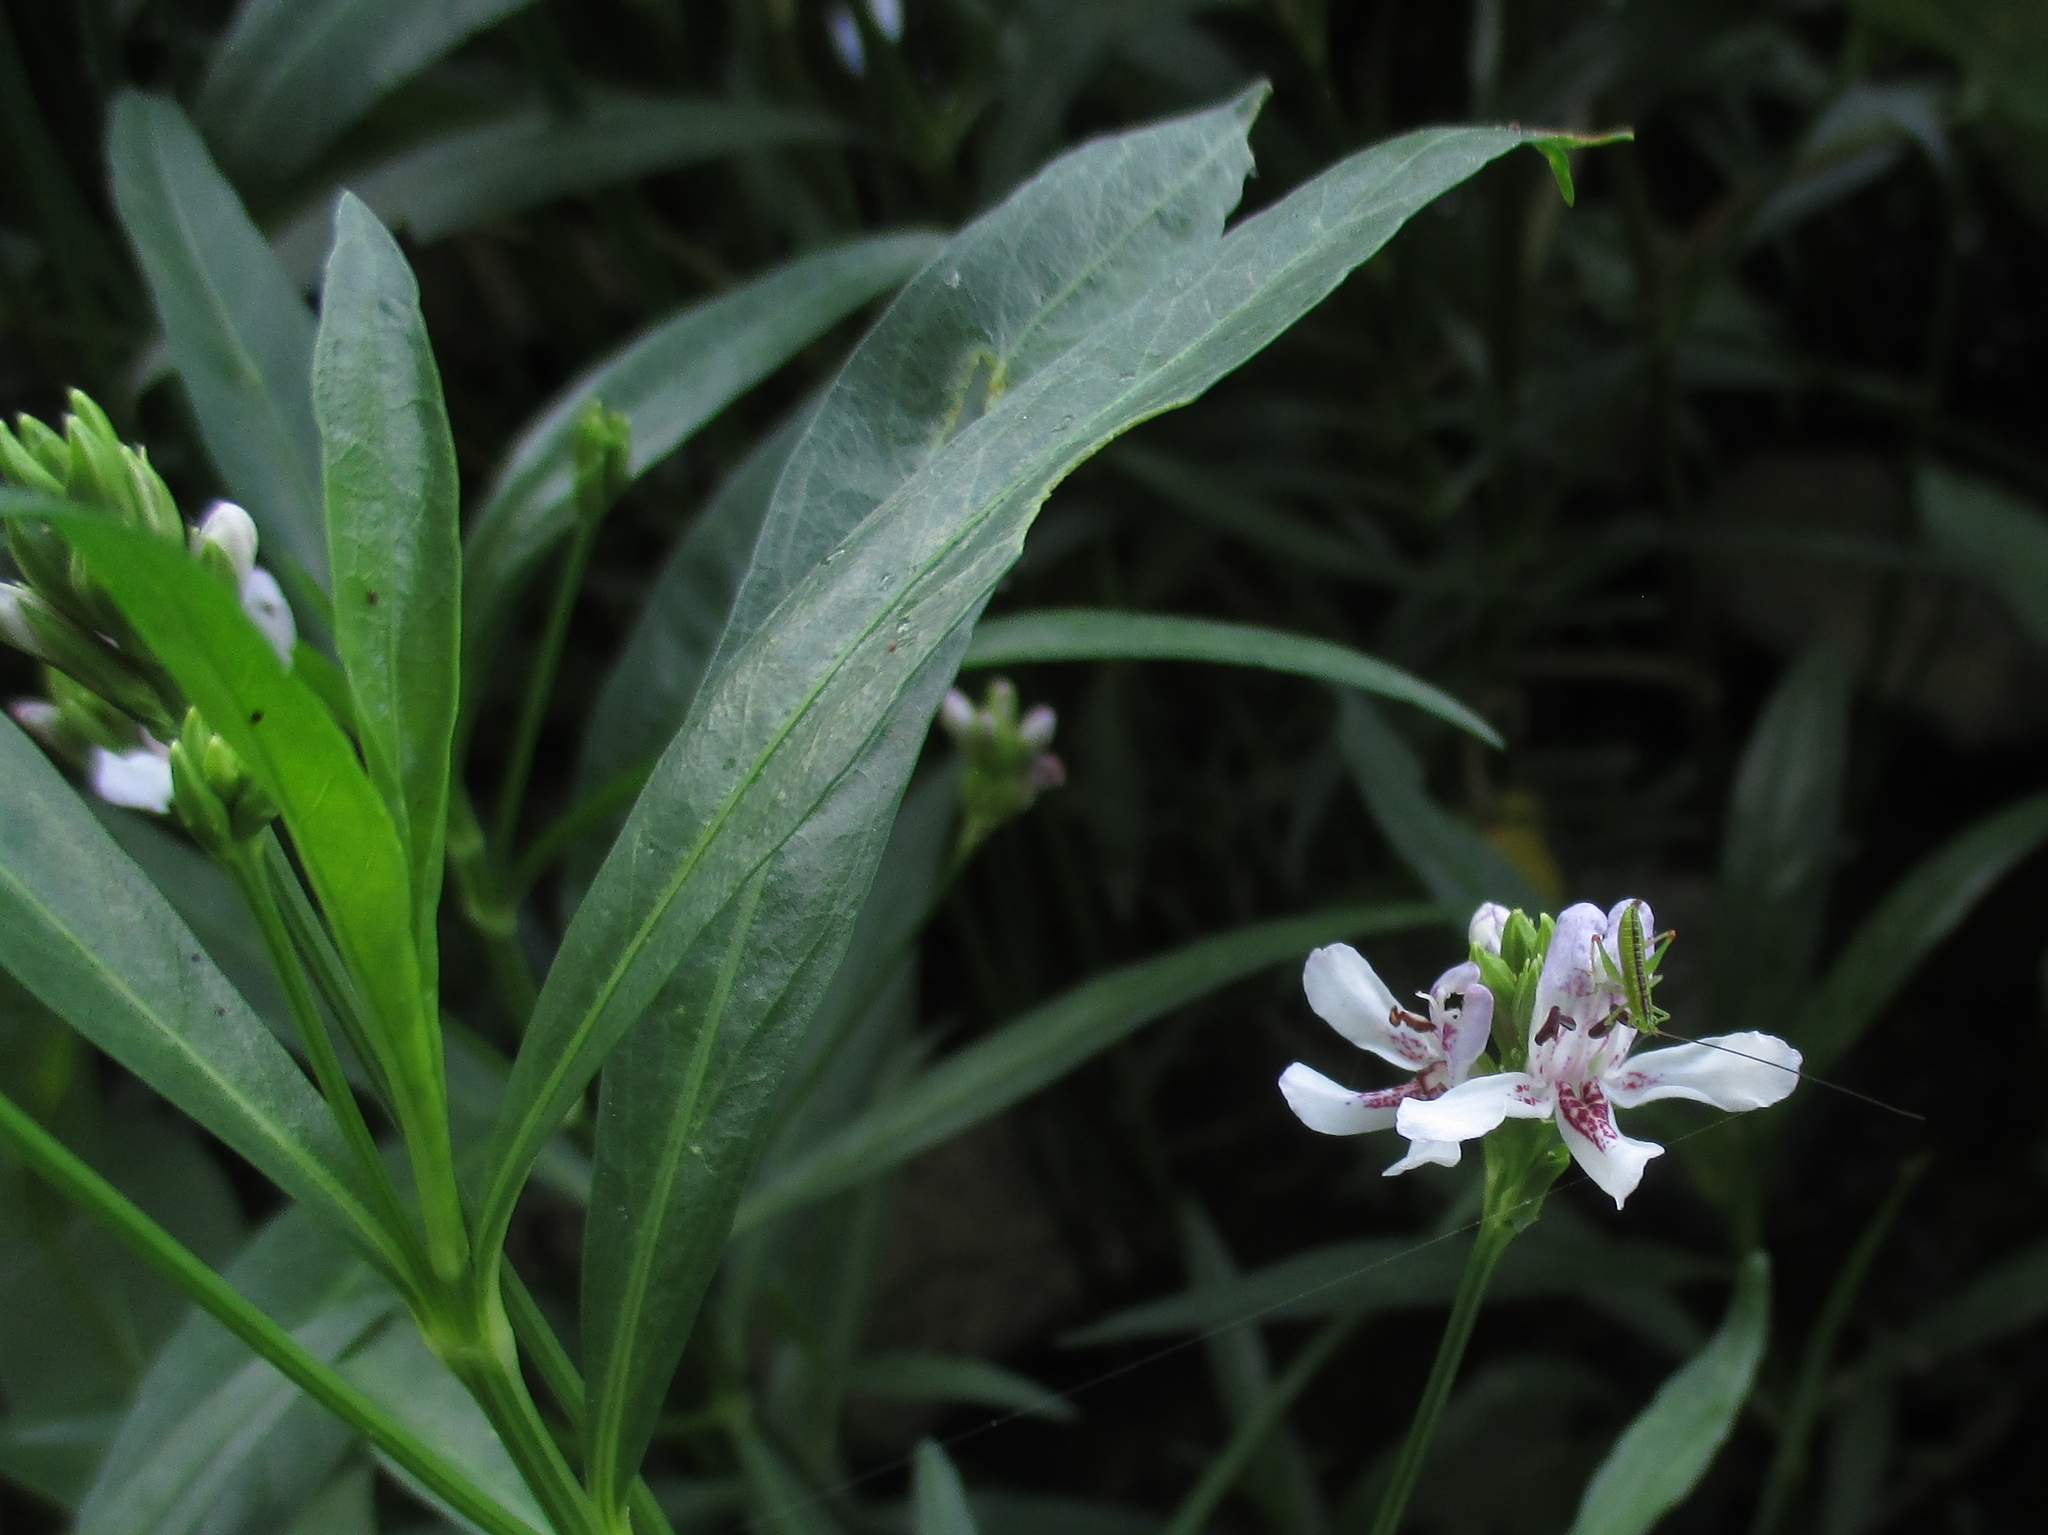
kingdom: Plantae
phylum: Tracheophyta
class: Magnoliopsida
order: Lamiales
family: Acanthaceae
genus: Dianthera
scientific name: Dianthera americana
